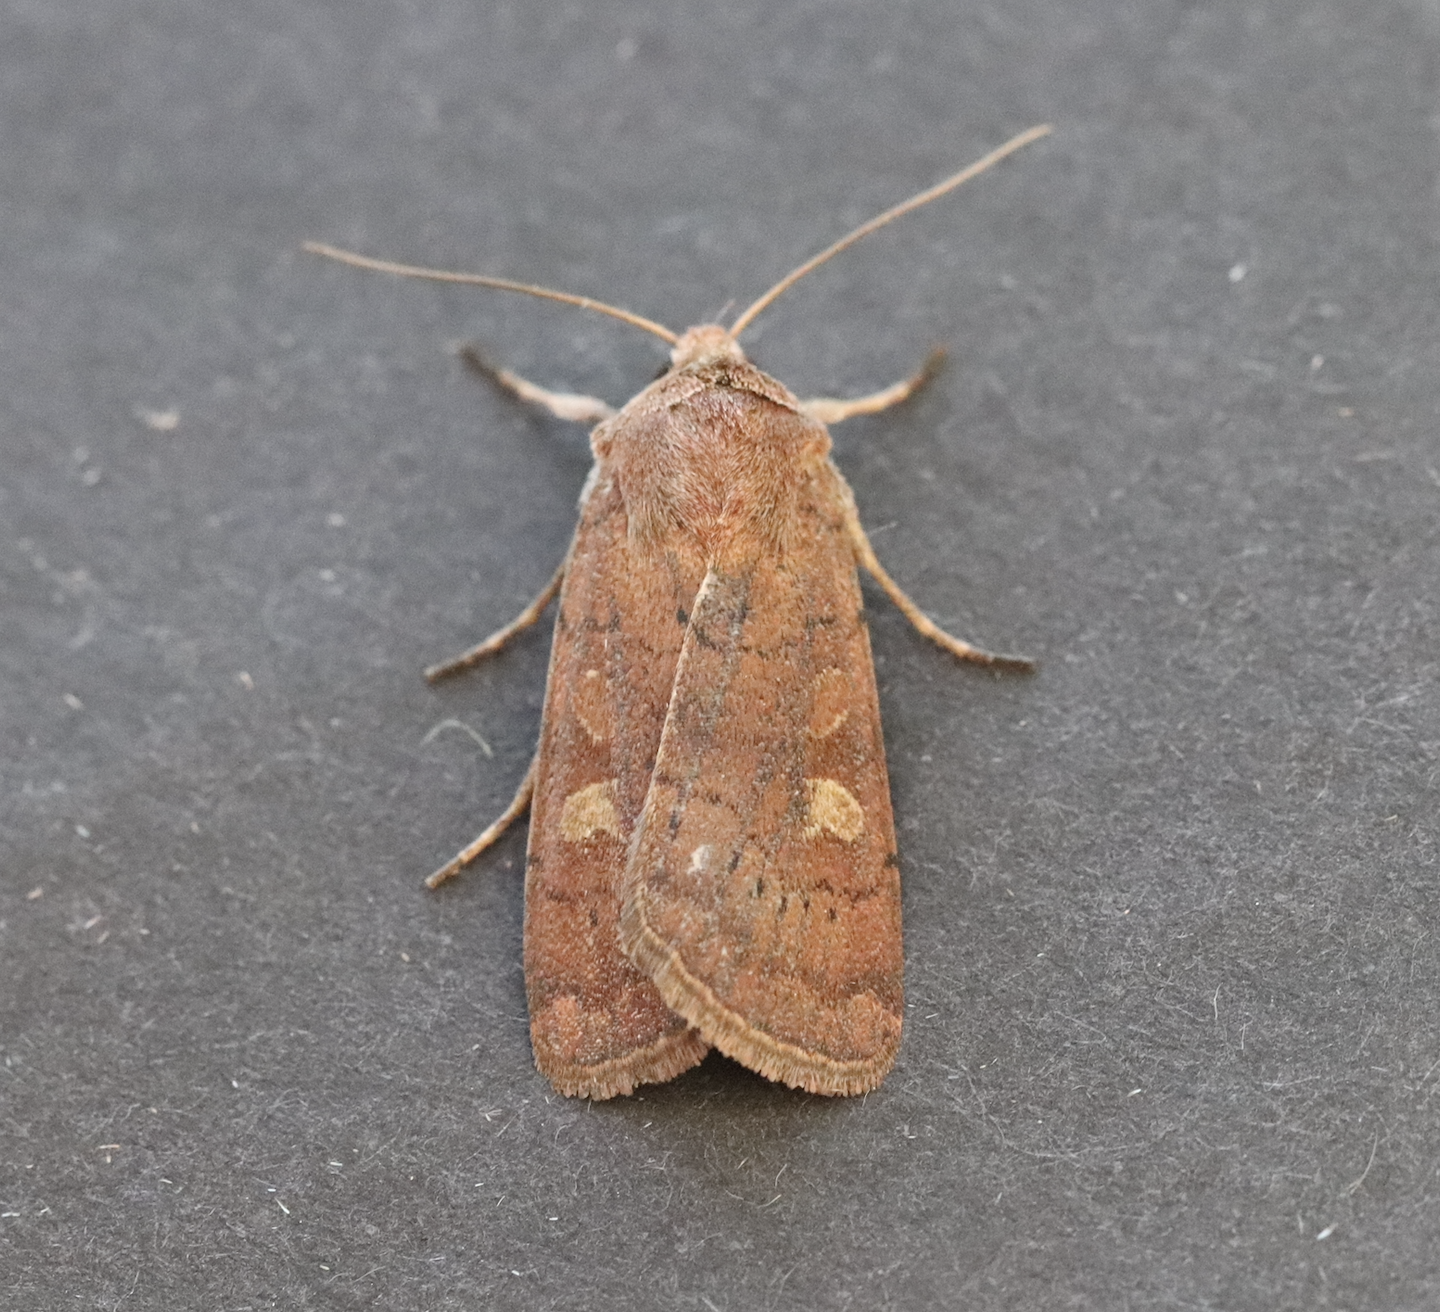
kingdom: Animalia
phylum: Arthropoda
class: Insecta
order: Lepidoptera
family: Noctuidae
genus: Xestia
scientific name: Xestia xanthographa
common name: Square-spot rustic
